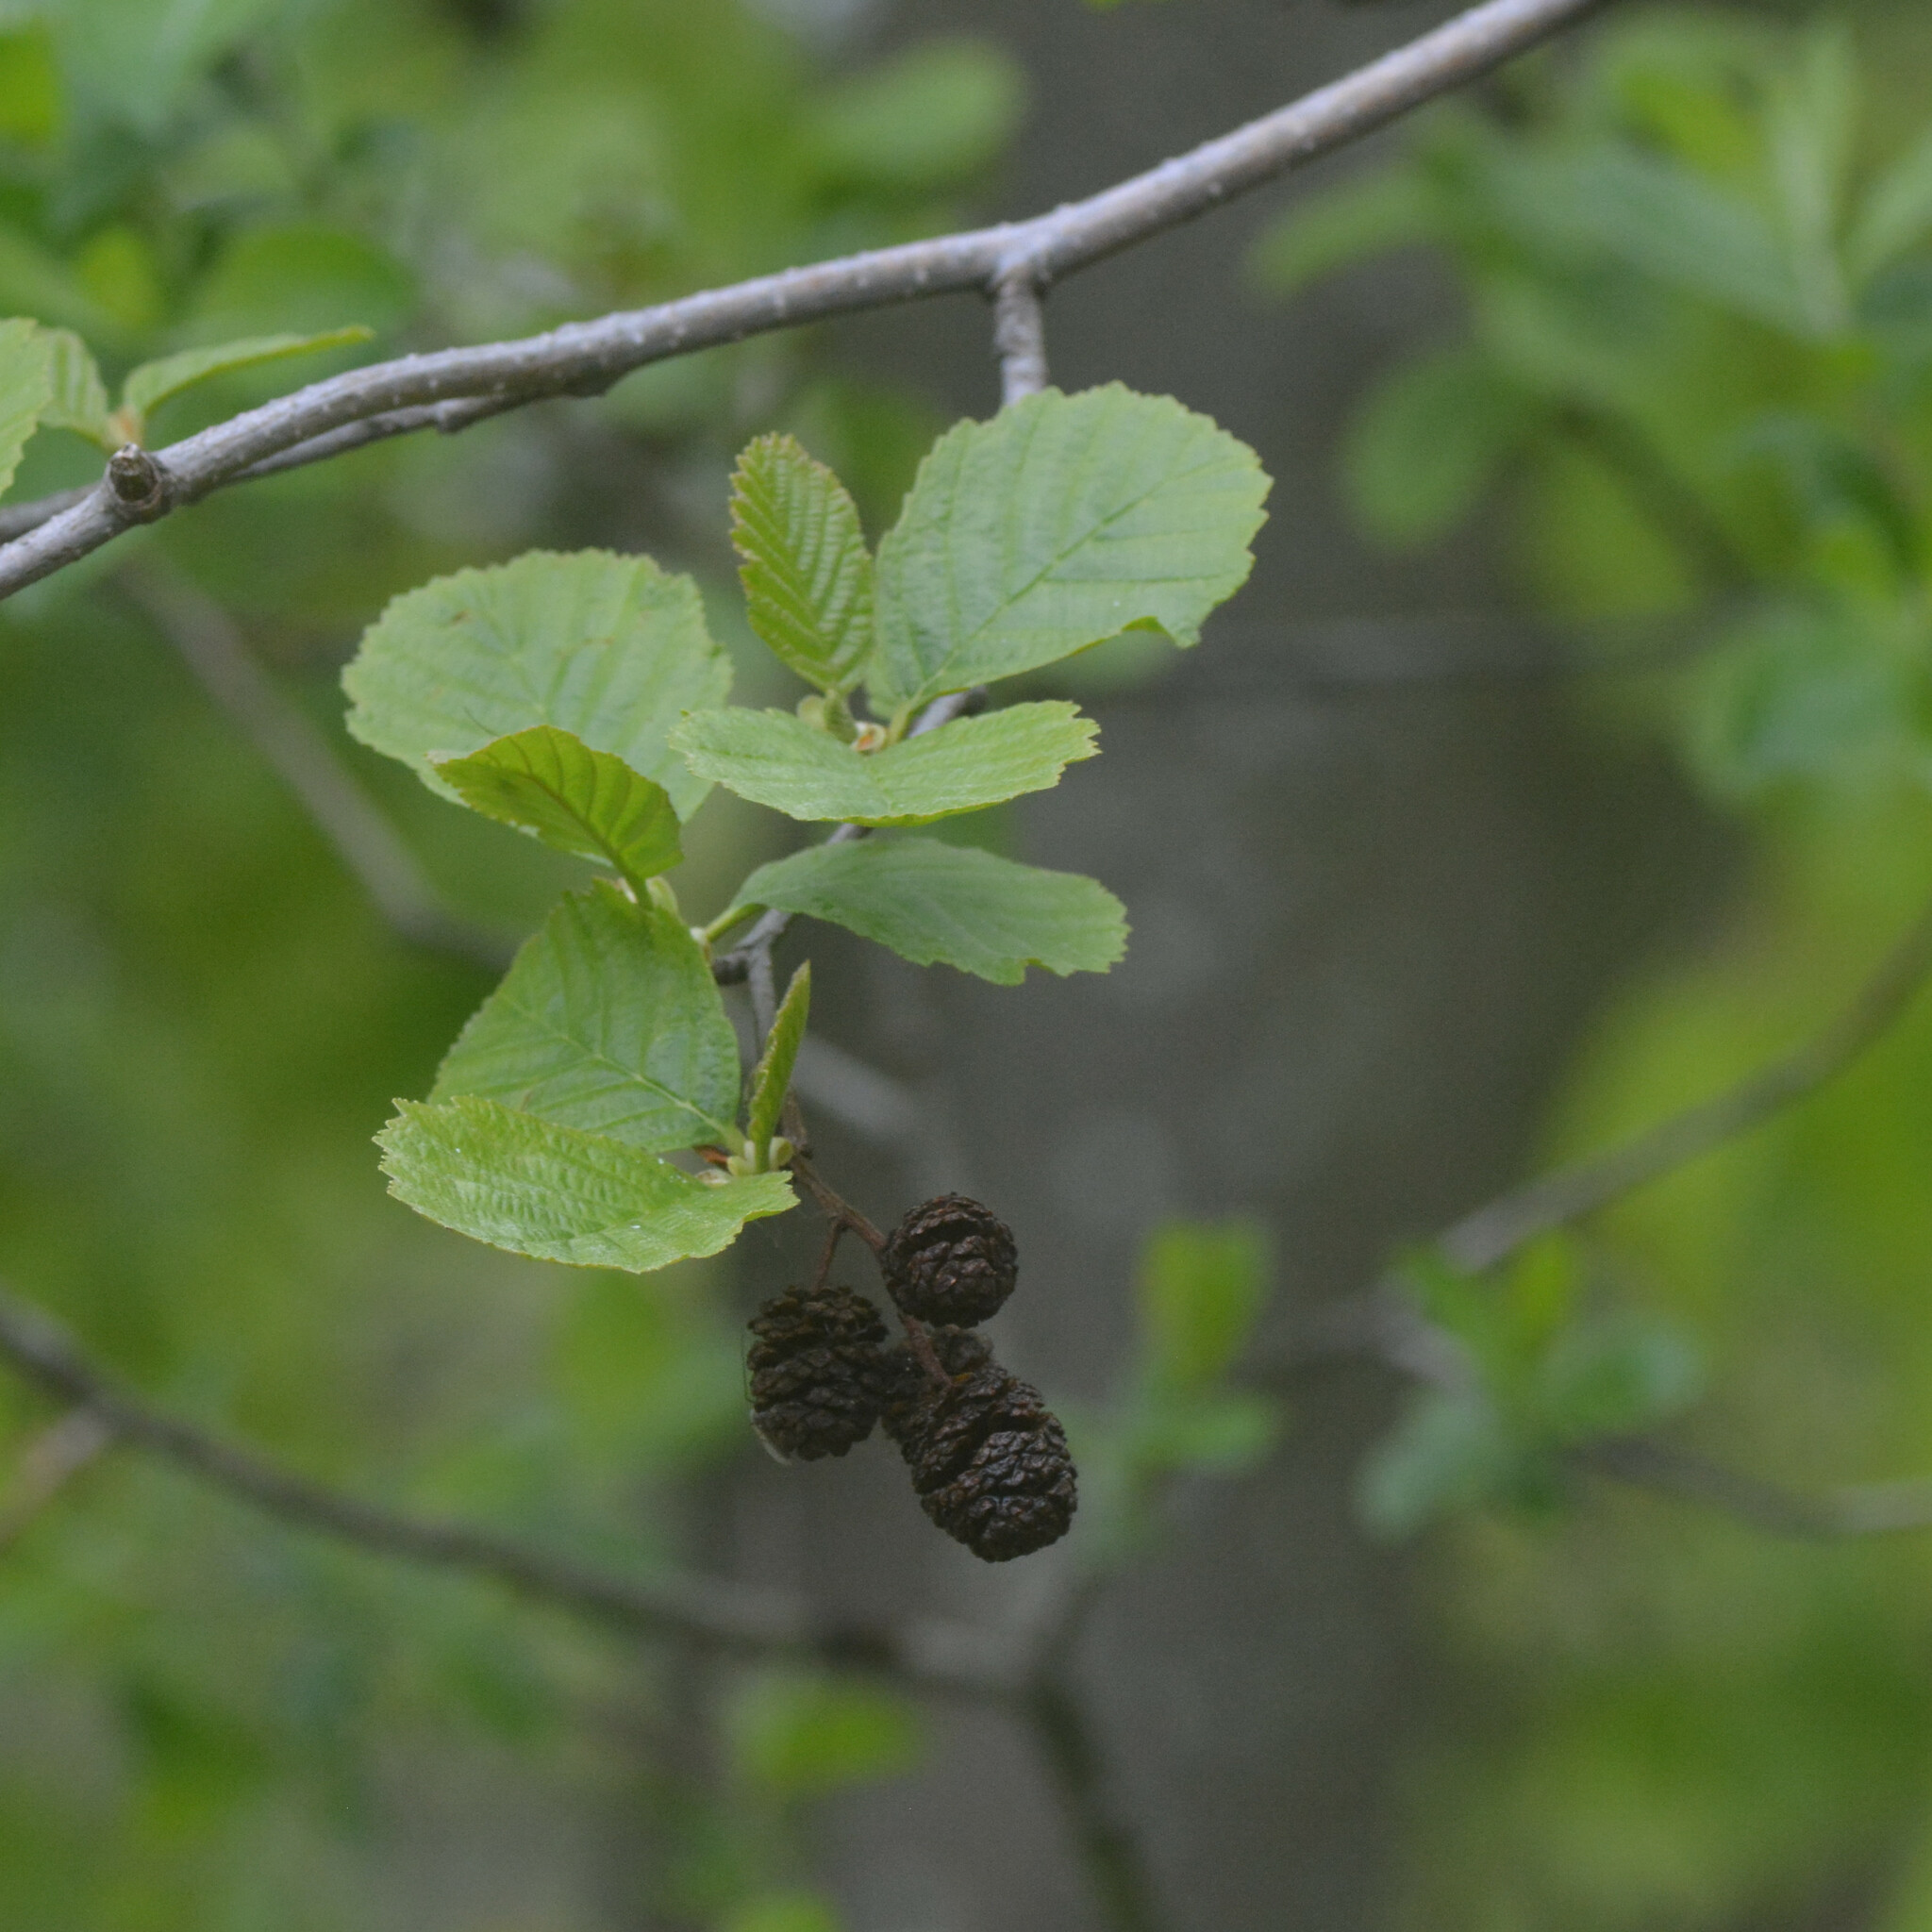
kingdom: Plantae
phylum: Tracheophyta
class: Magnoliopsida
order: Fagales
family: Betulaceae
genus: Alnus
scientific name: Alnus glutinosa
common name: Black alder
